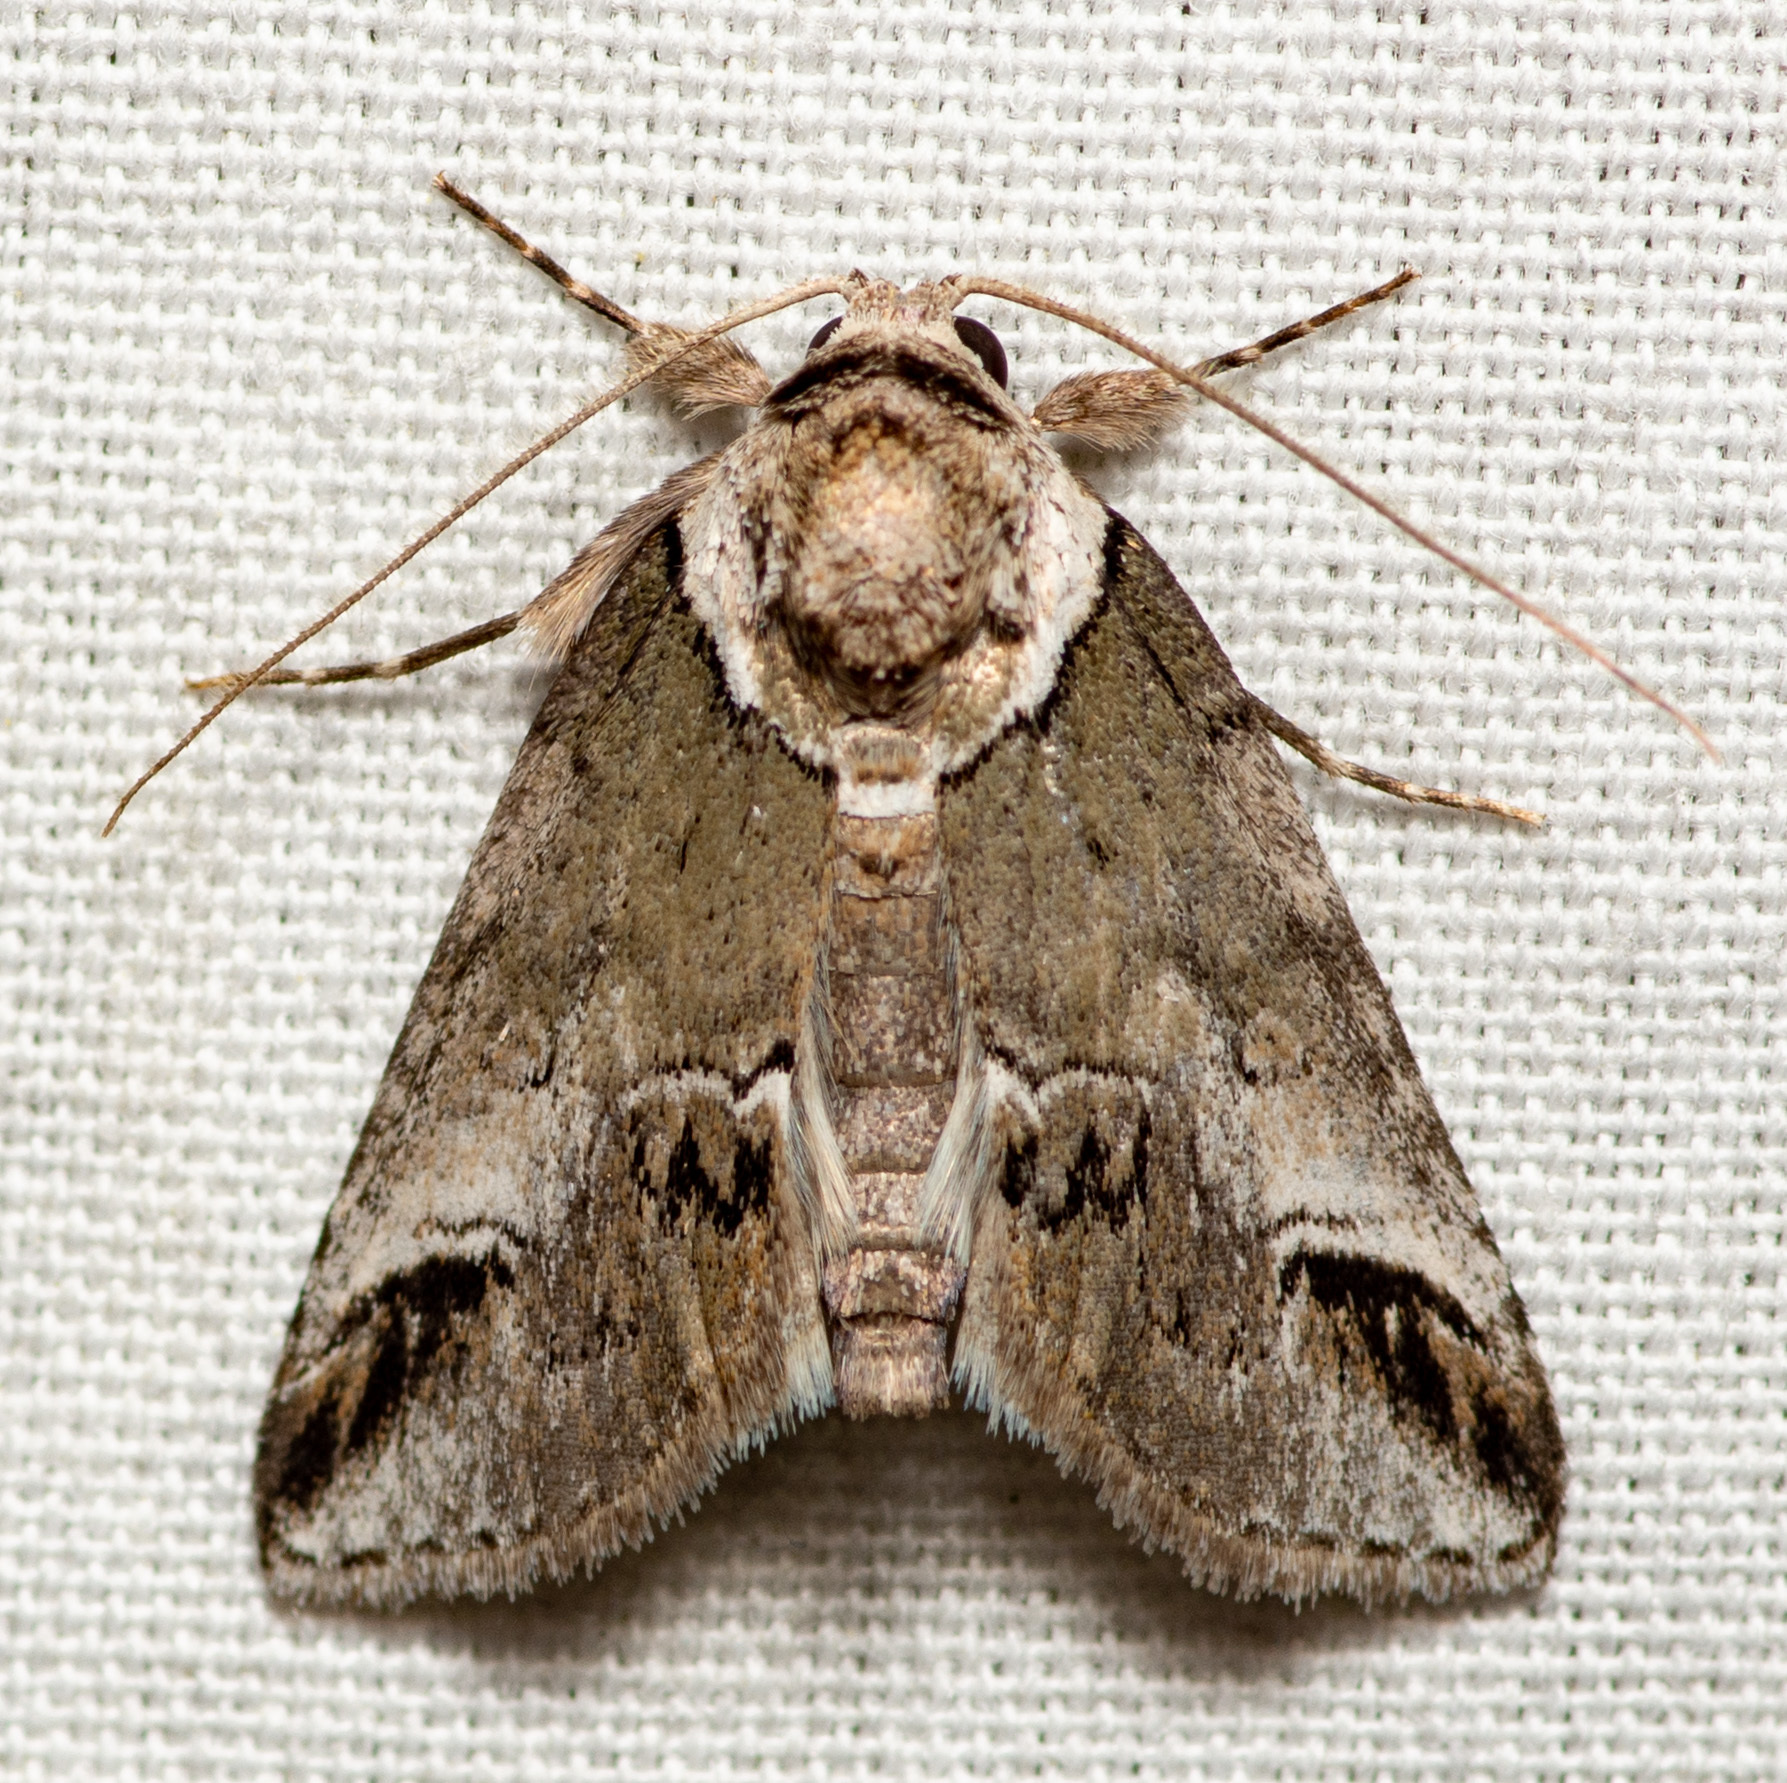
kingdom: Animalia
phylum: Arthropoda
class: Insecta
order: Lepidoptera
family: Nolidae
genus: Baileya
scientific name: Baileya australis
